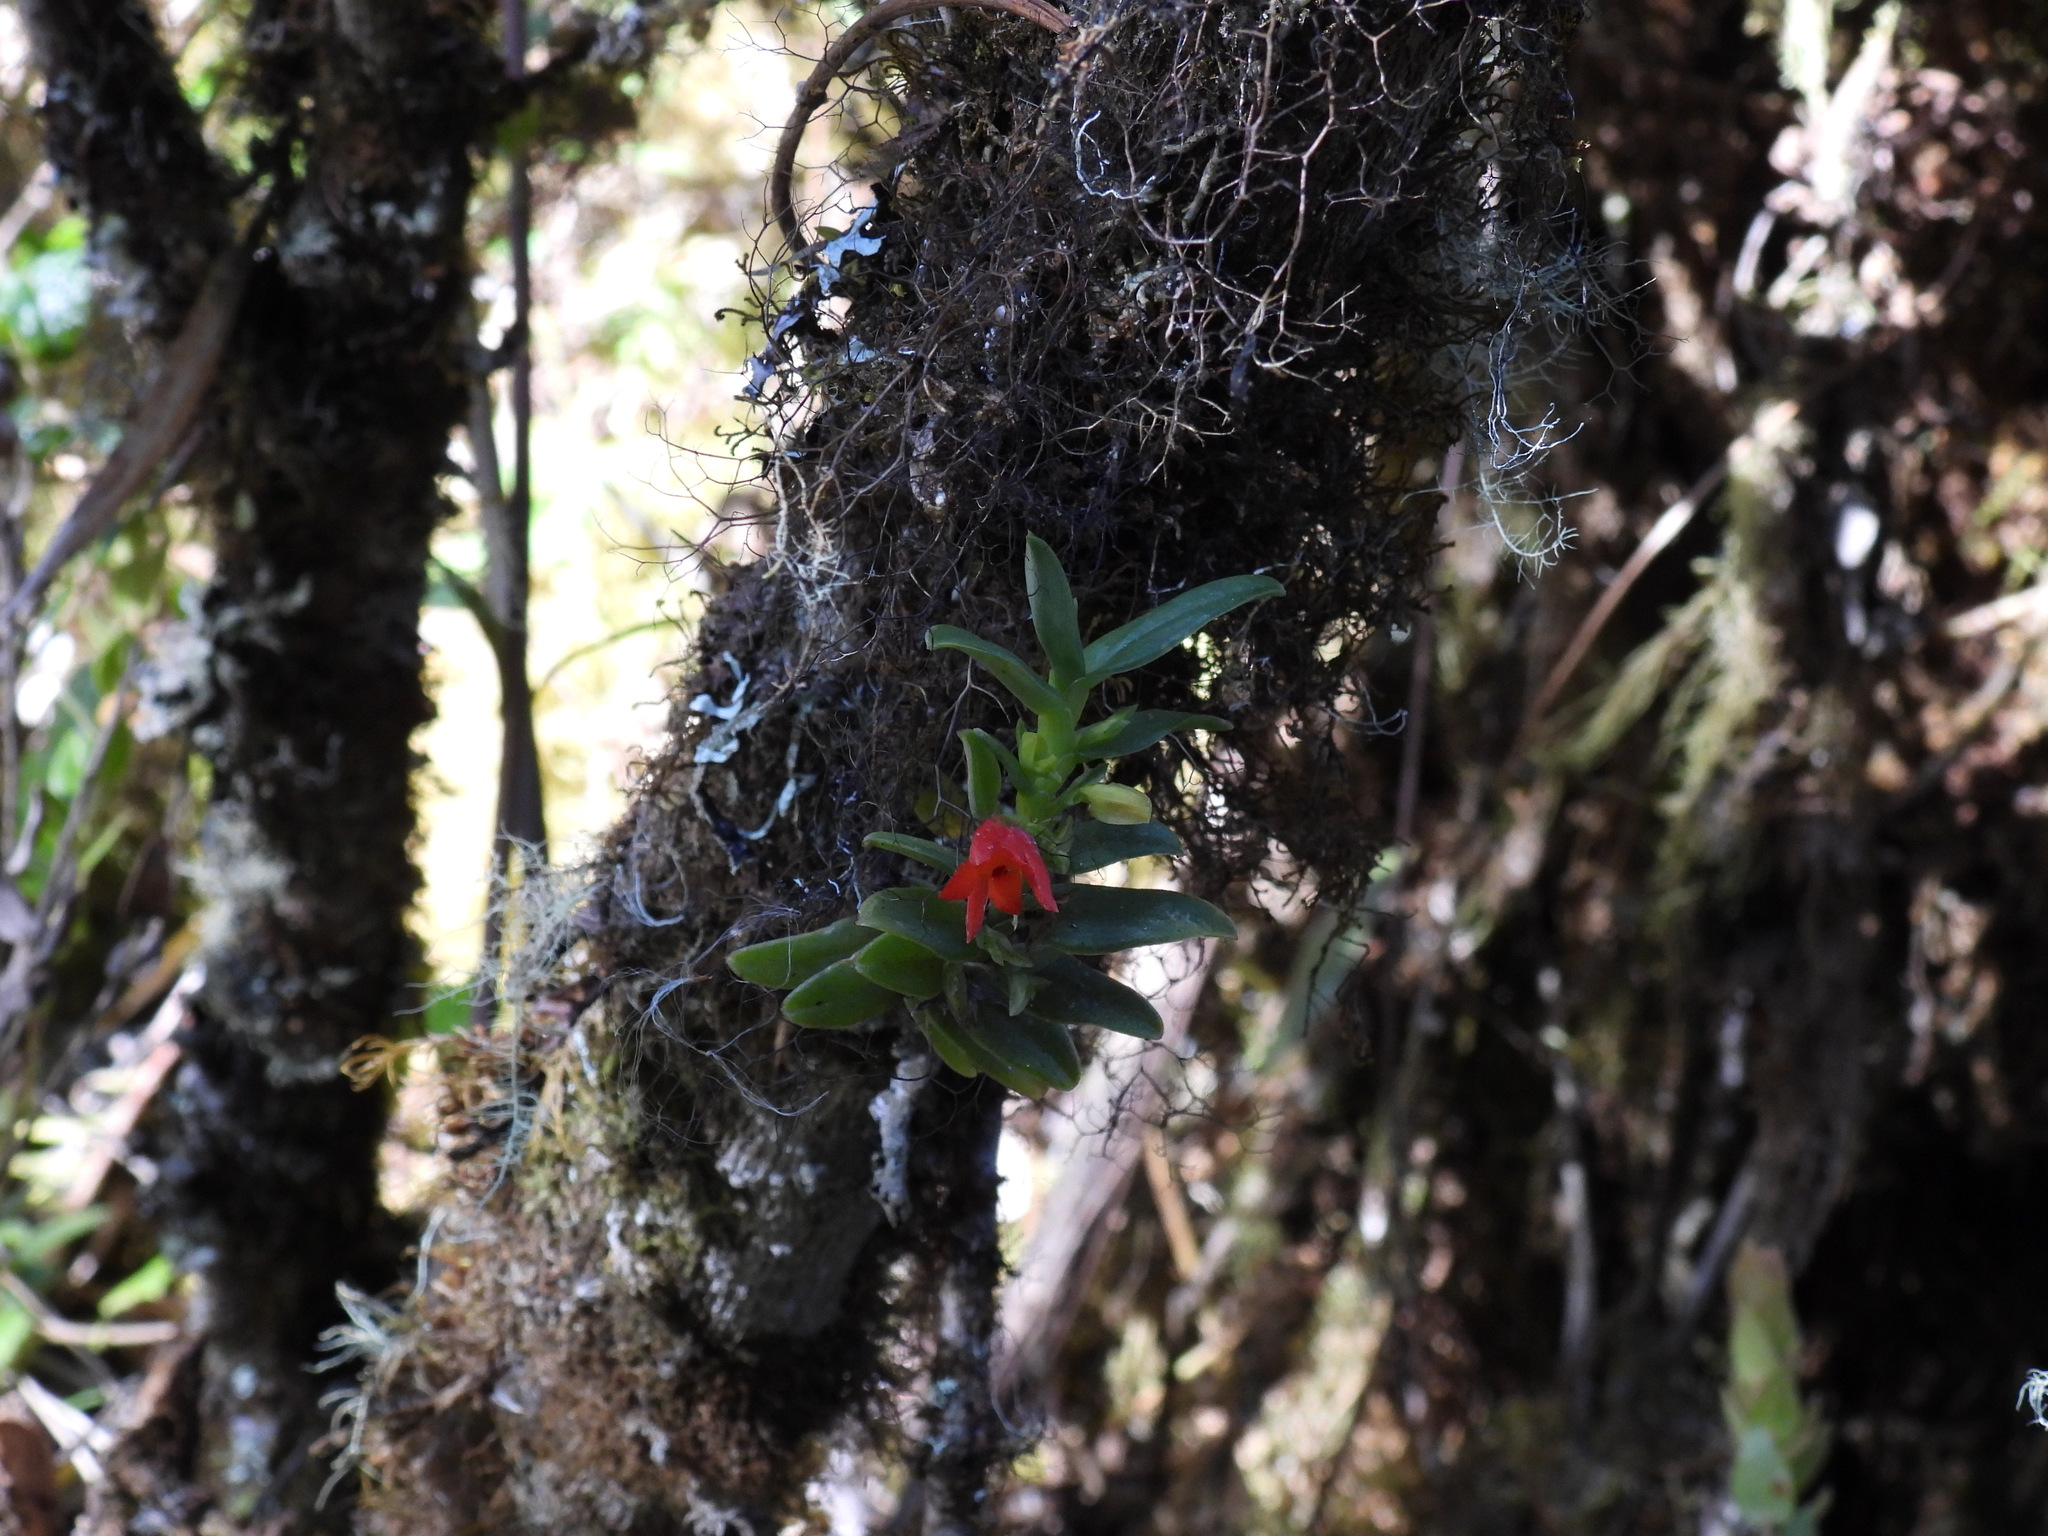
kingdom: Plantae
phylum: Tracheophyta
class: Liliopsida
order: Asparagales
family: Orchidaceae
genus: Fernandezia
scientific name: Fernandezia sanguinea
